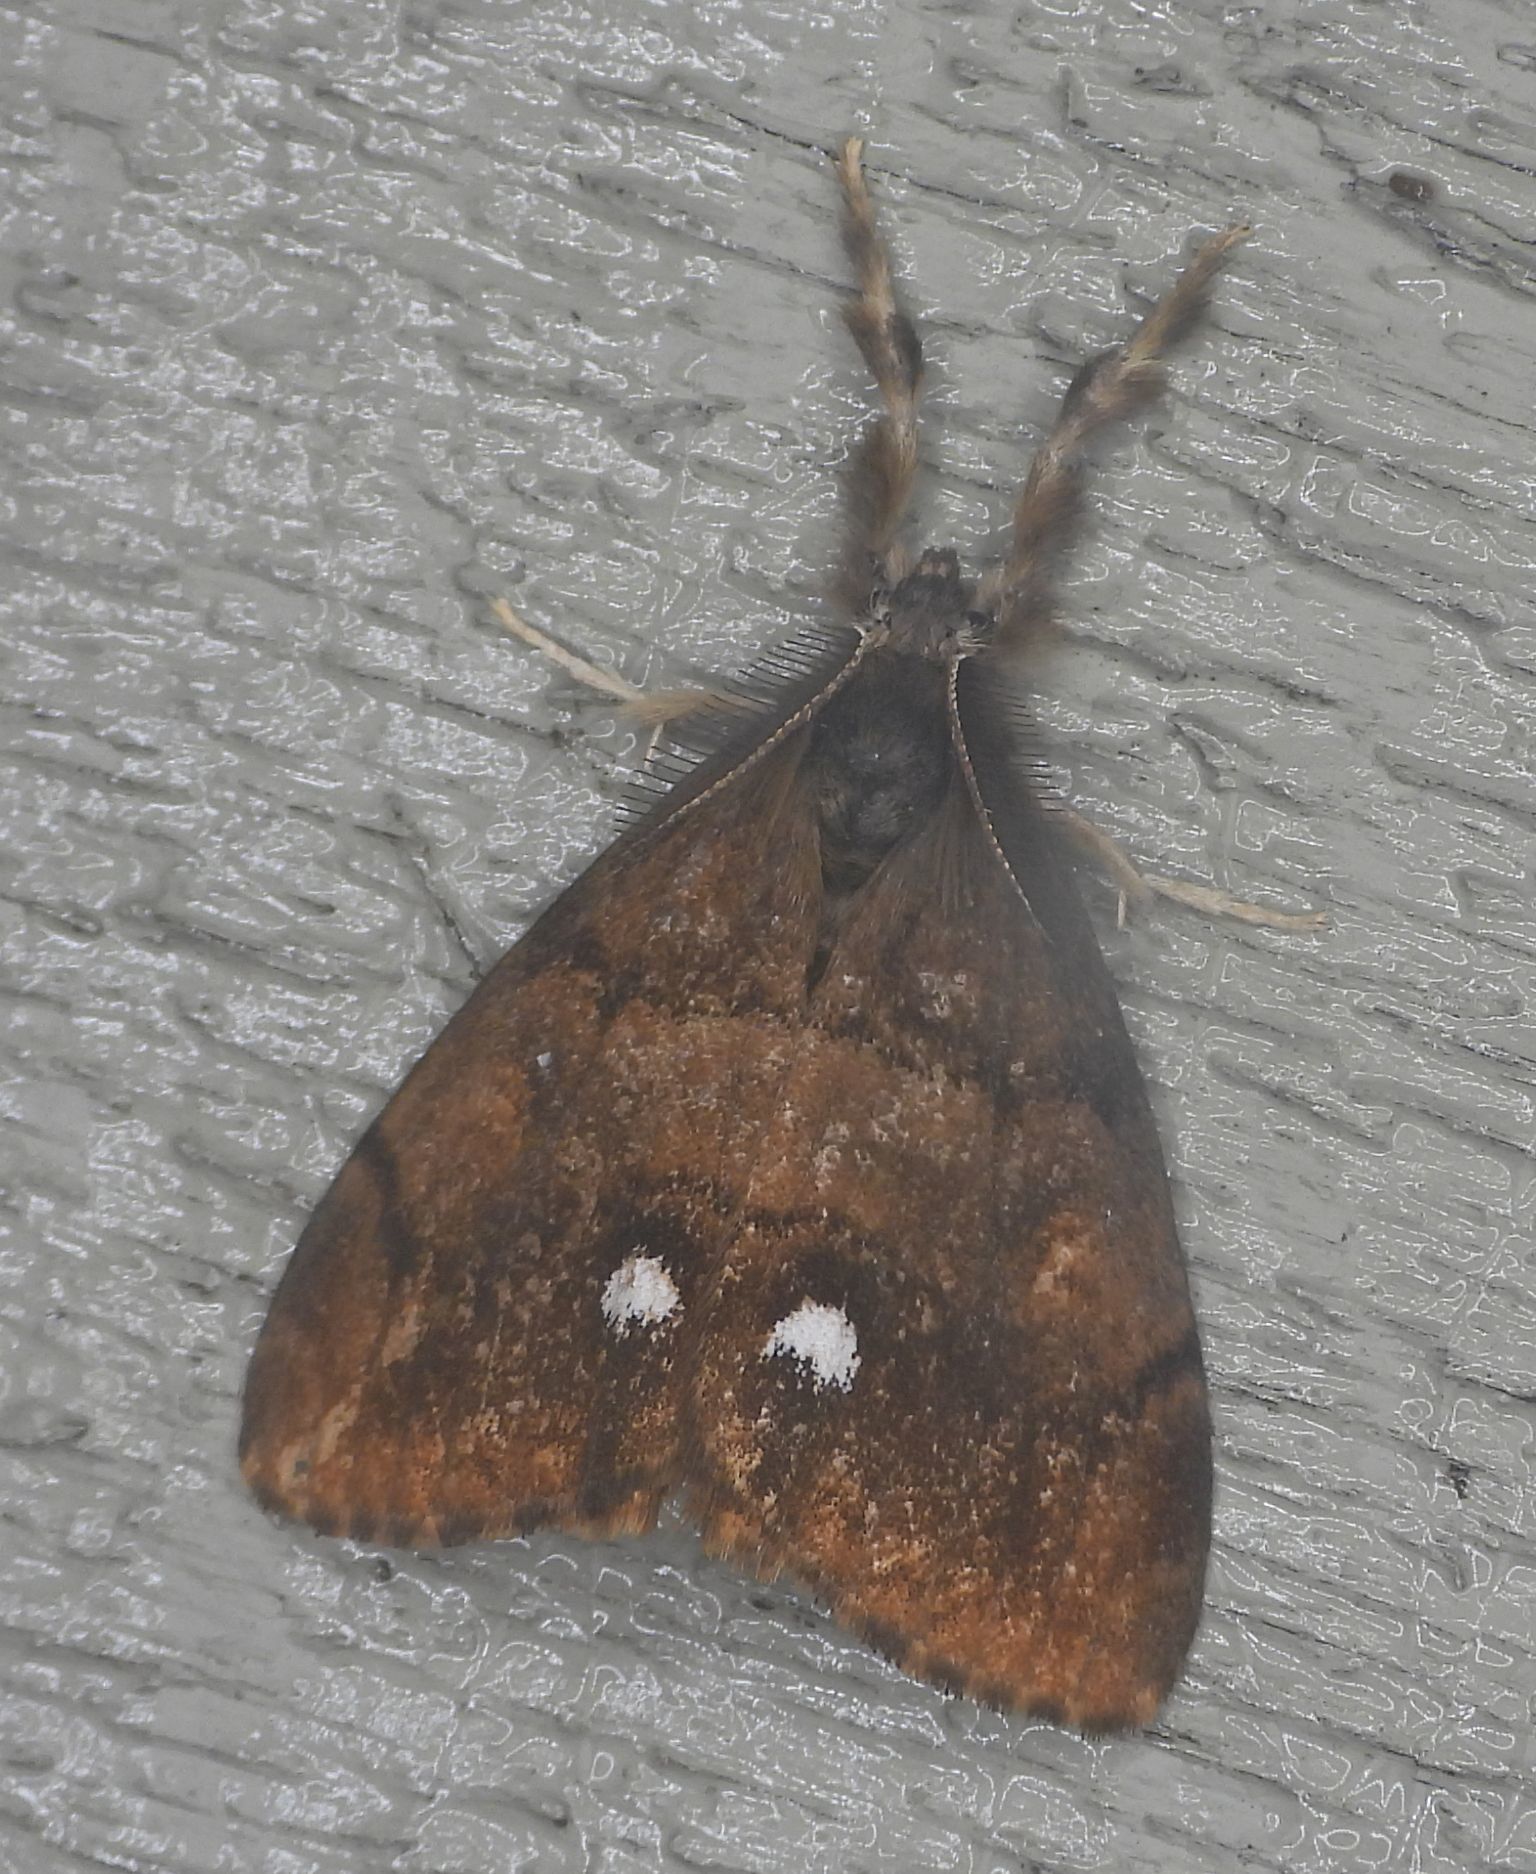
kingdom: Animalia
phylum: Arthropoda
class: Insecta
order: Lepidoptera
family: Erebidae
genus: Orgyia
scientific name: Orgyia antiqua
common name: Vapourer
